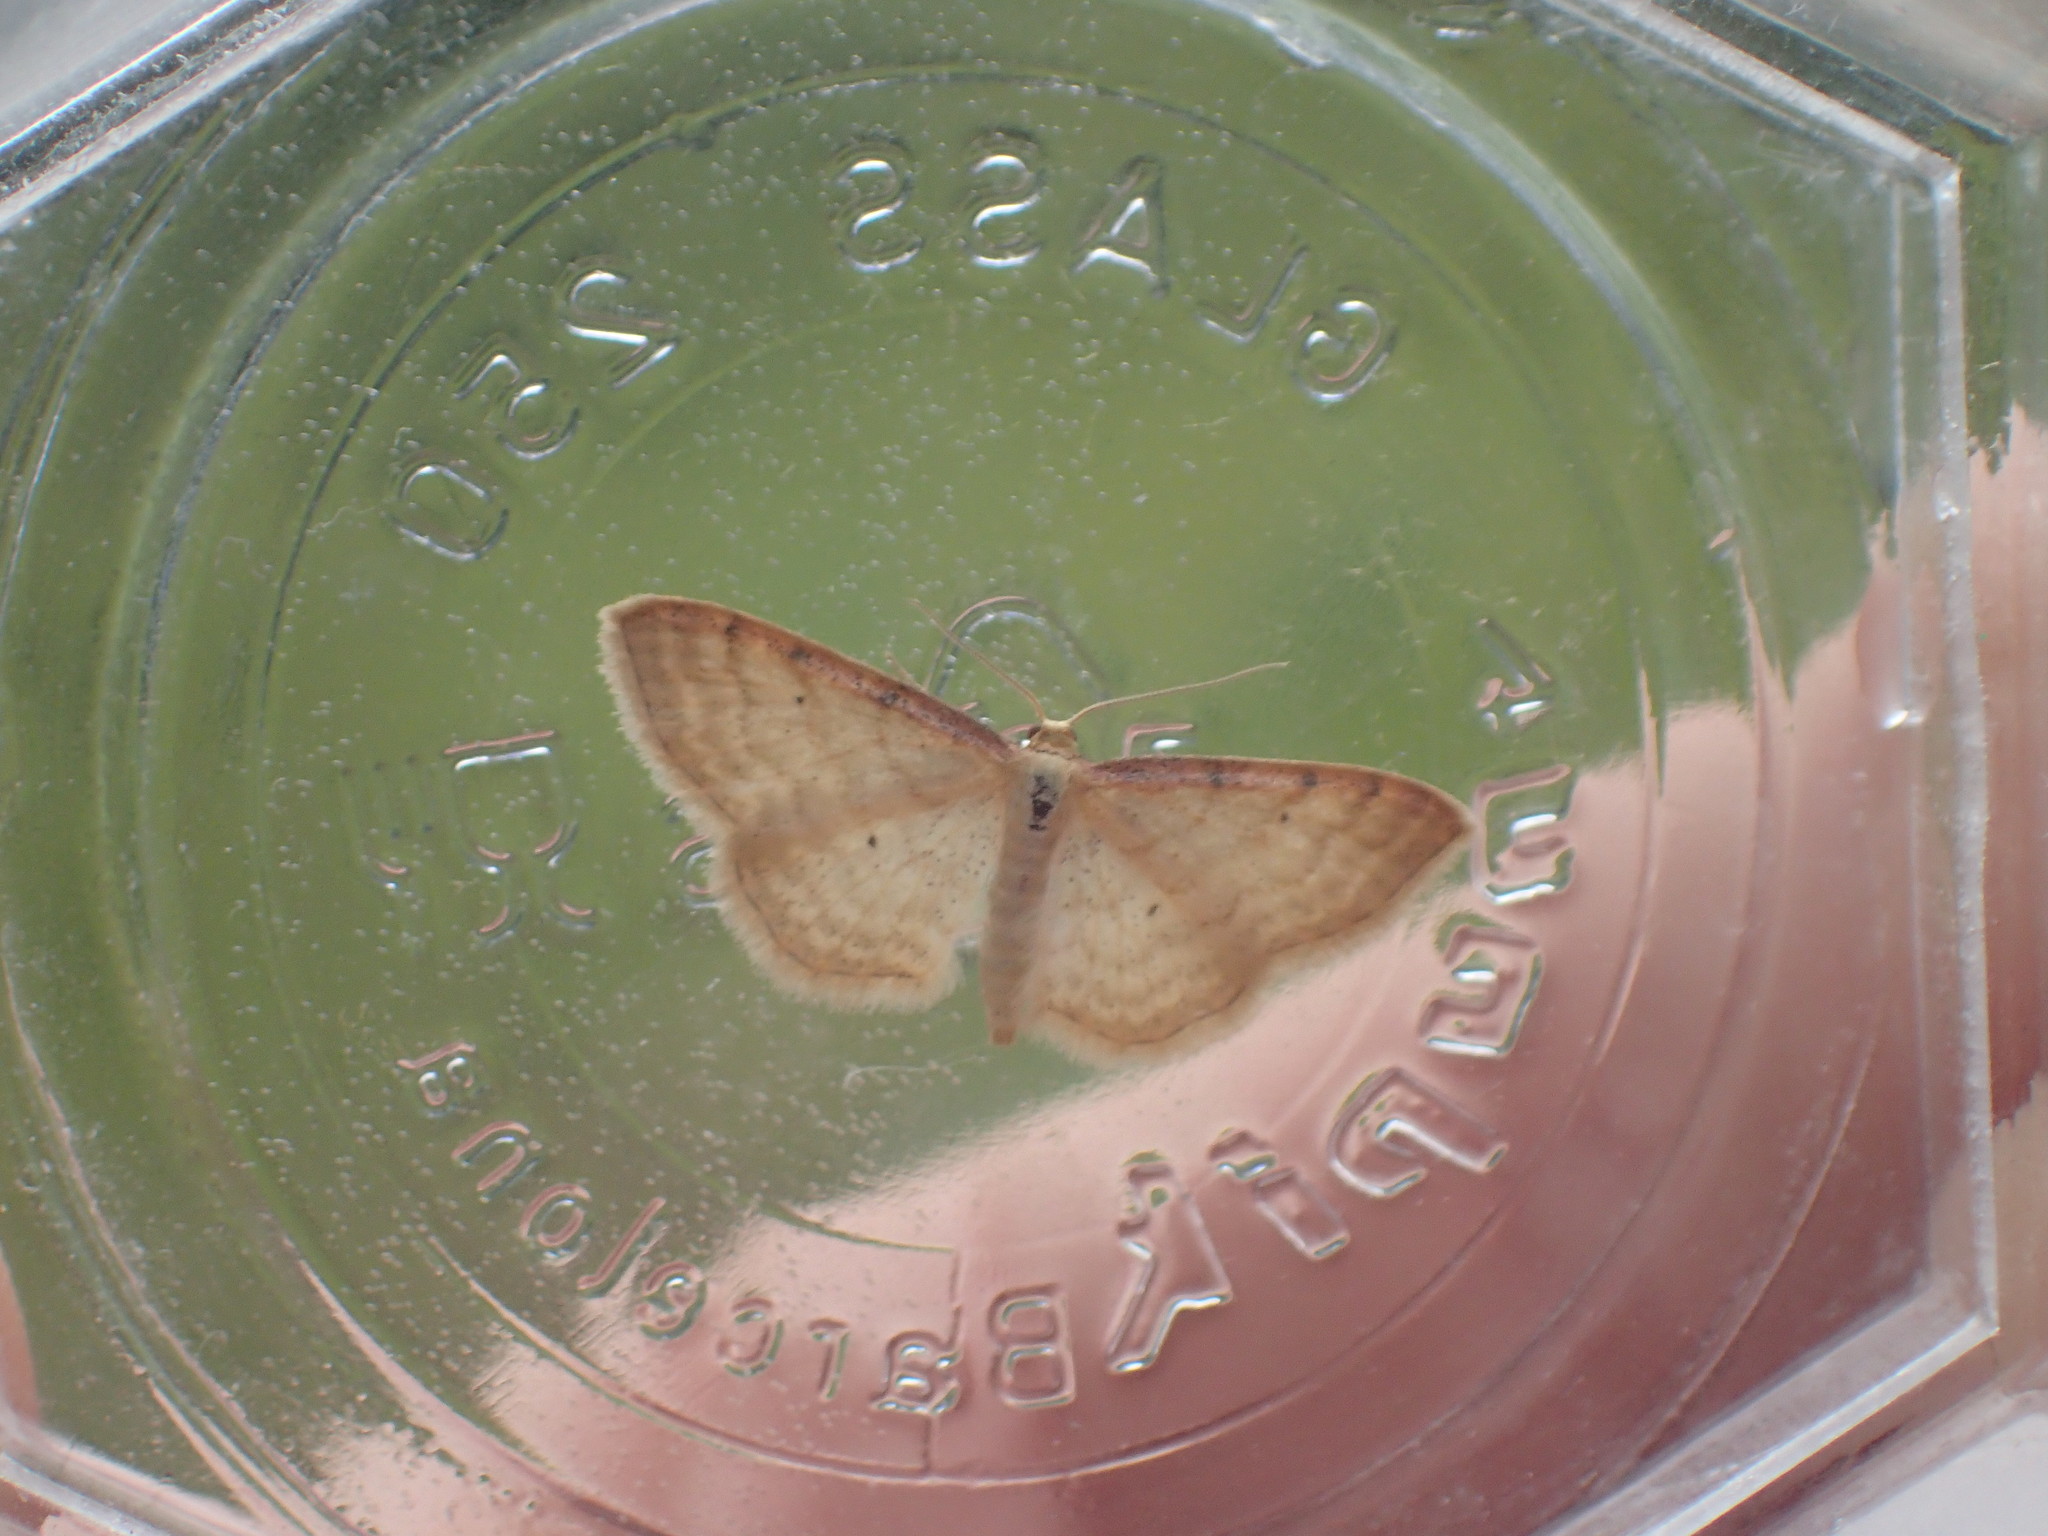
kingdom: Animalia
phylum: Arthropoda
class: Insecta
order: Lepidoptera
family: Geometridae
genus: Idaea
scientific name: Idaea humiliata
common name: Isle of wight wave
